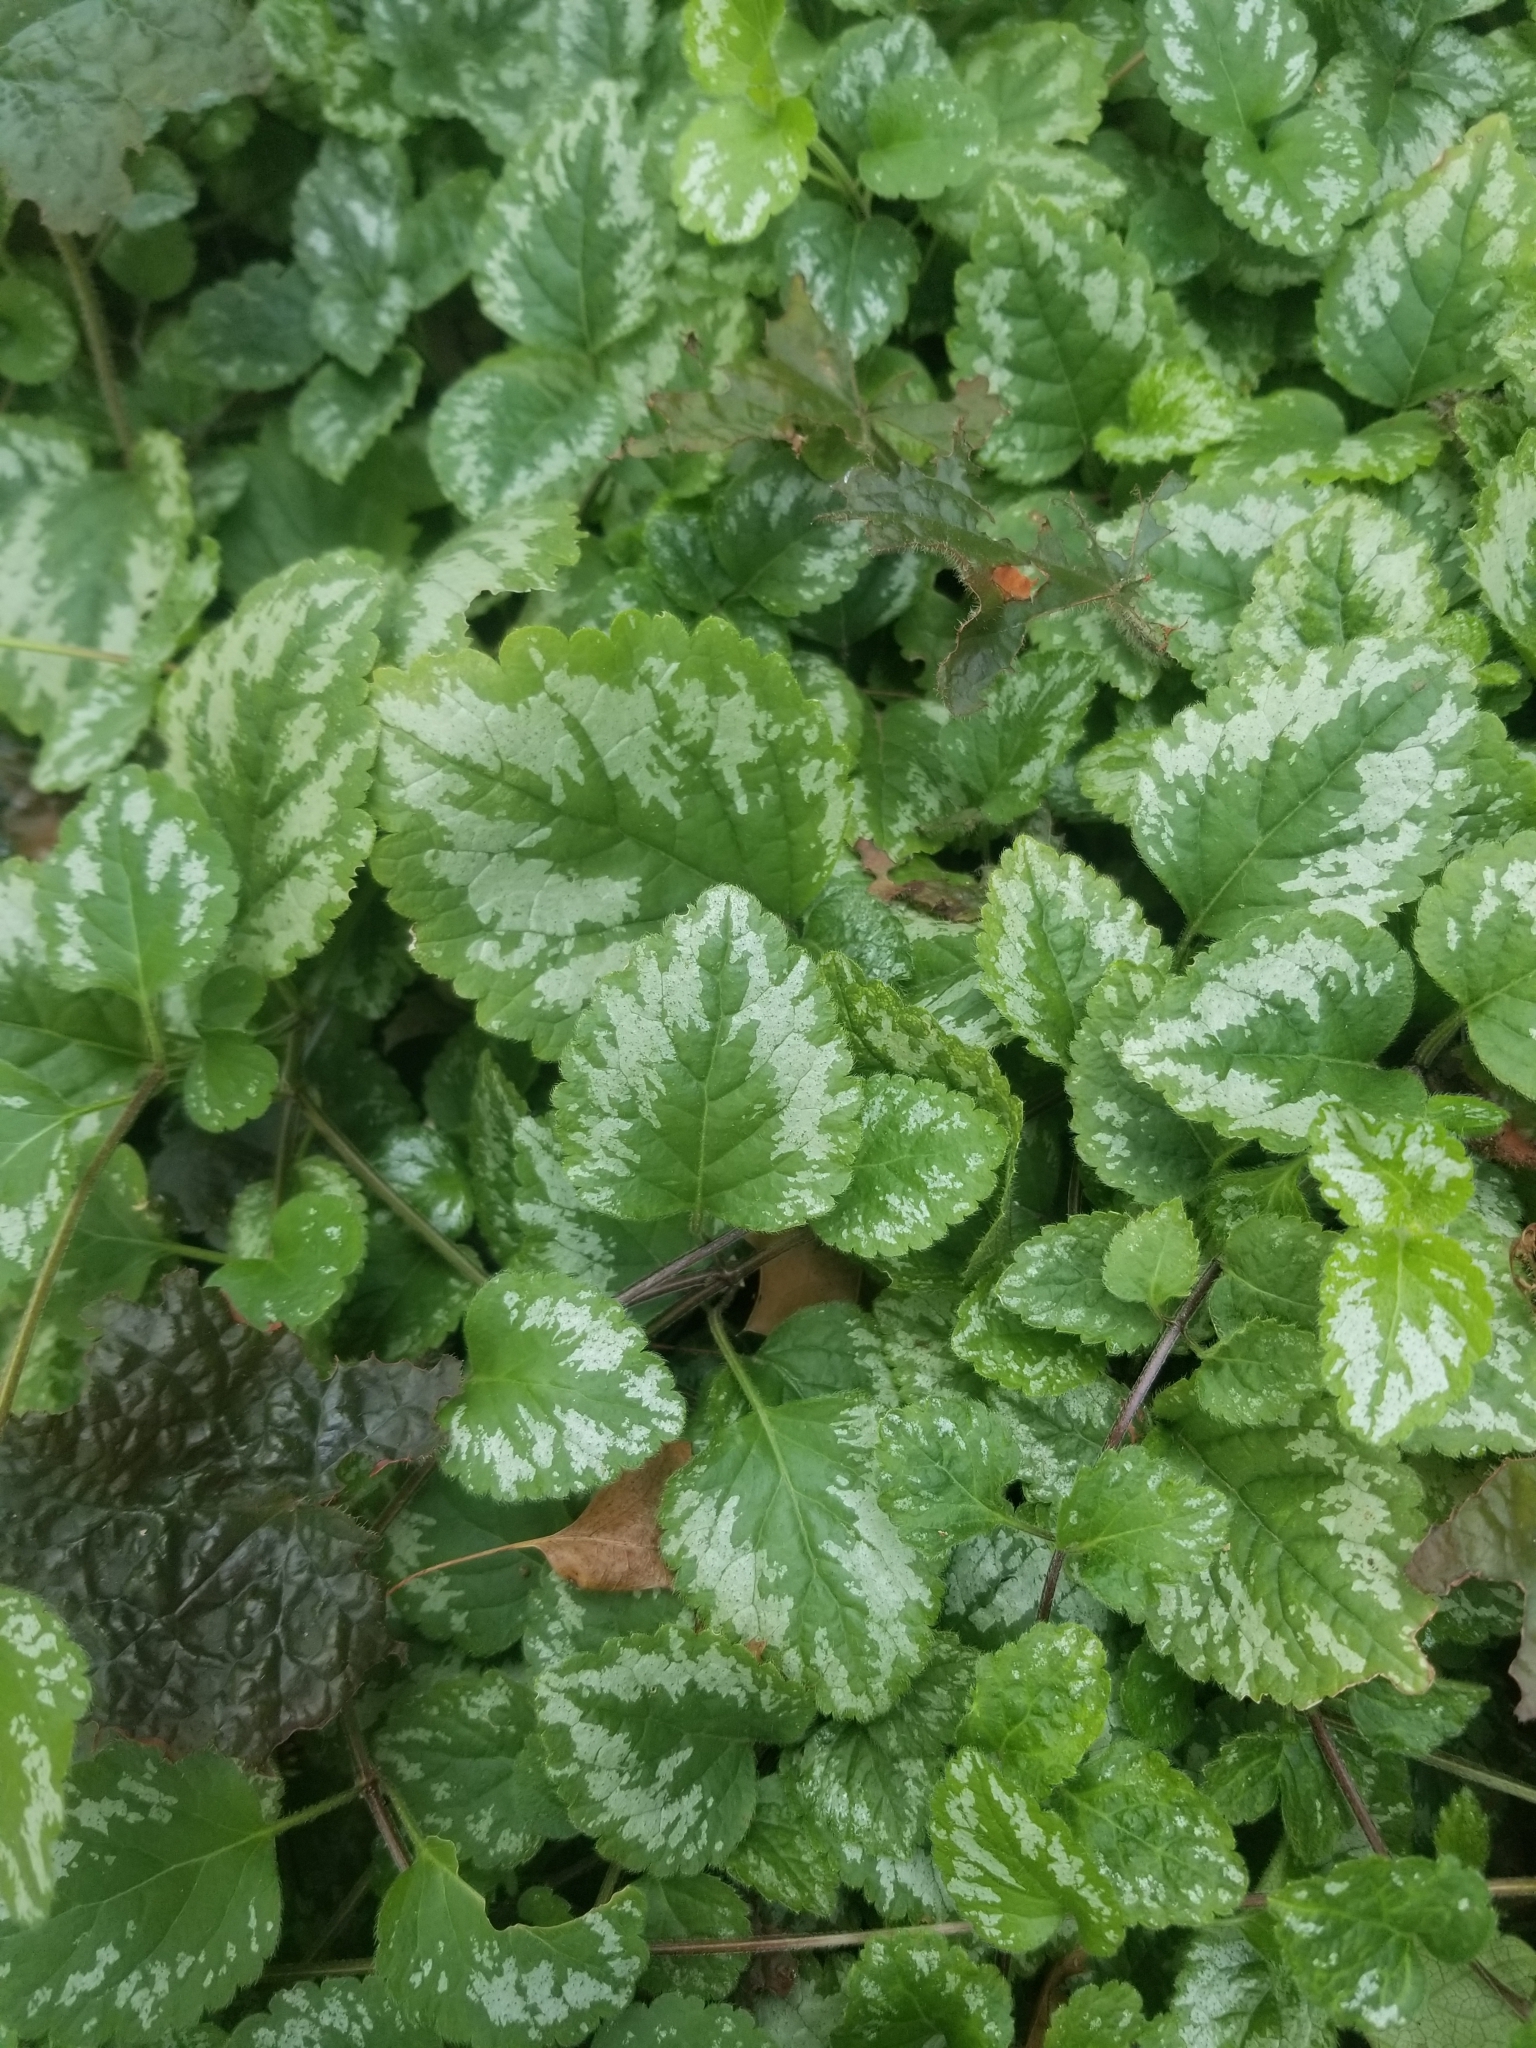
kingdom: Plantae
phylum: Tracheophyta
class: Magnoliopsida
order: Lamiales
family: Lamiaceae
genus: Lamium
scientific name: Lamium galeobdolon
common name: Yellow archangel
